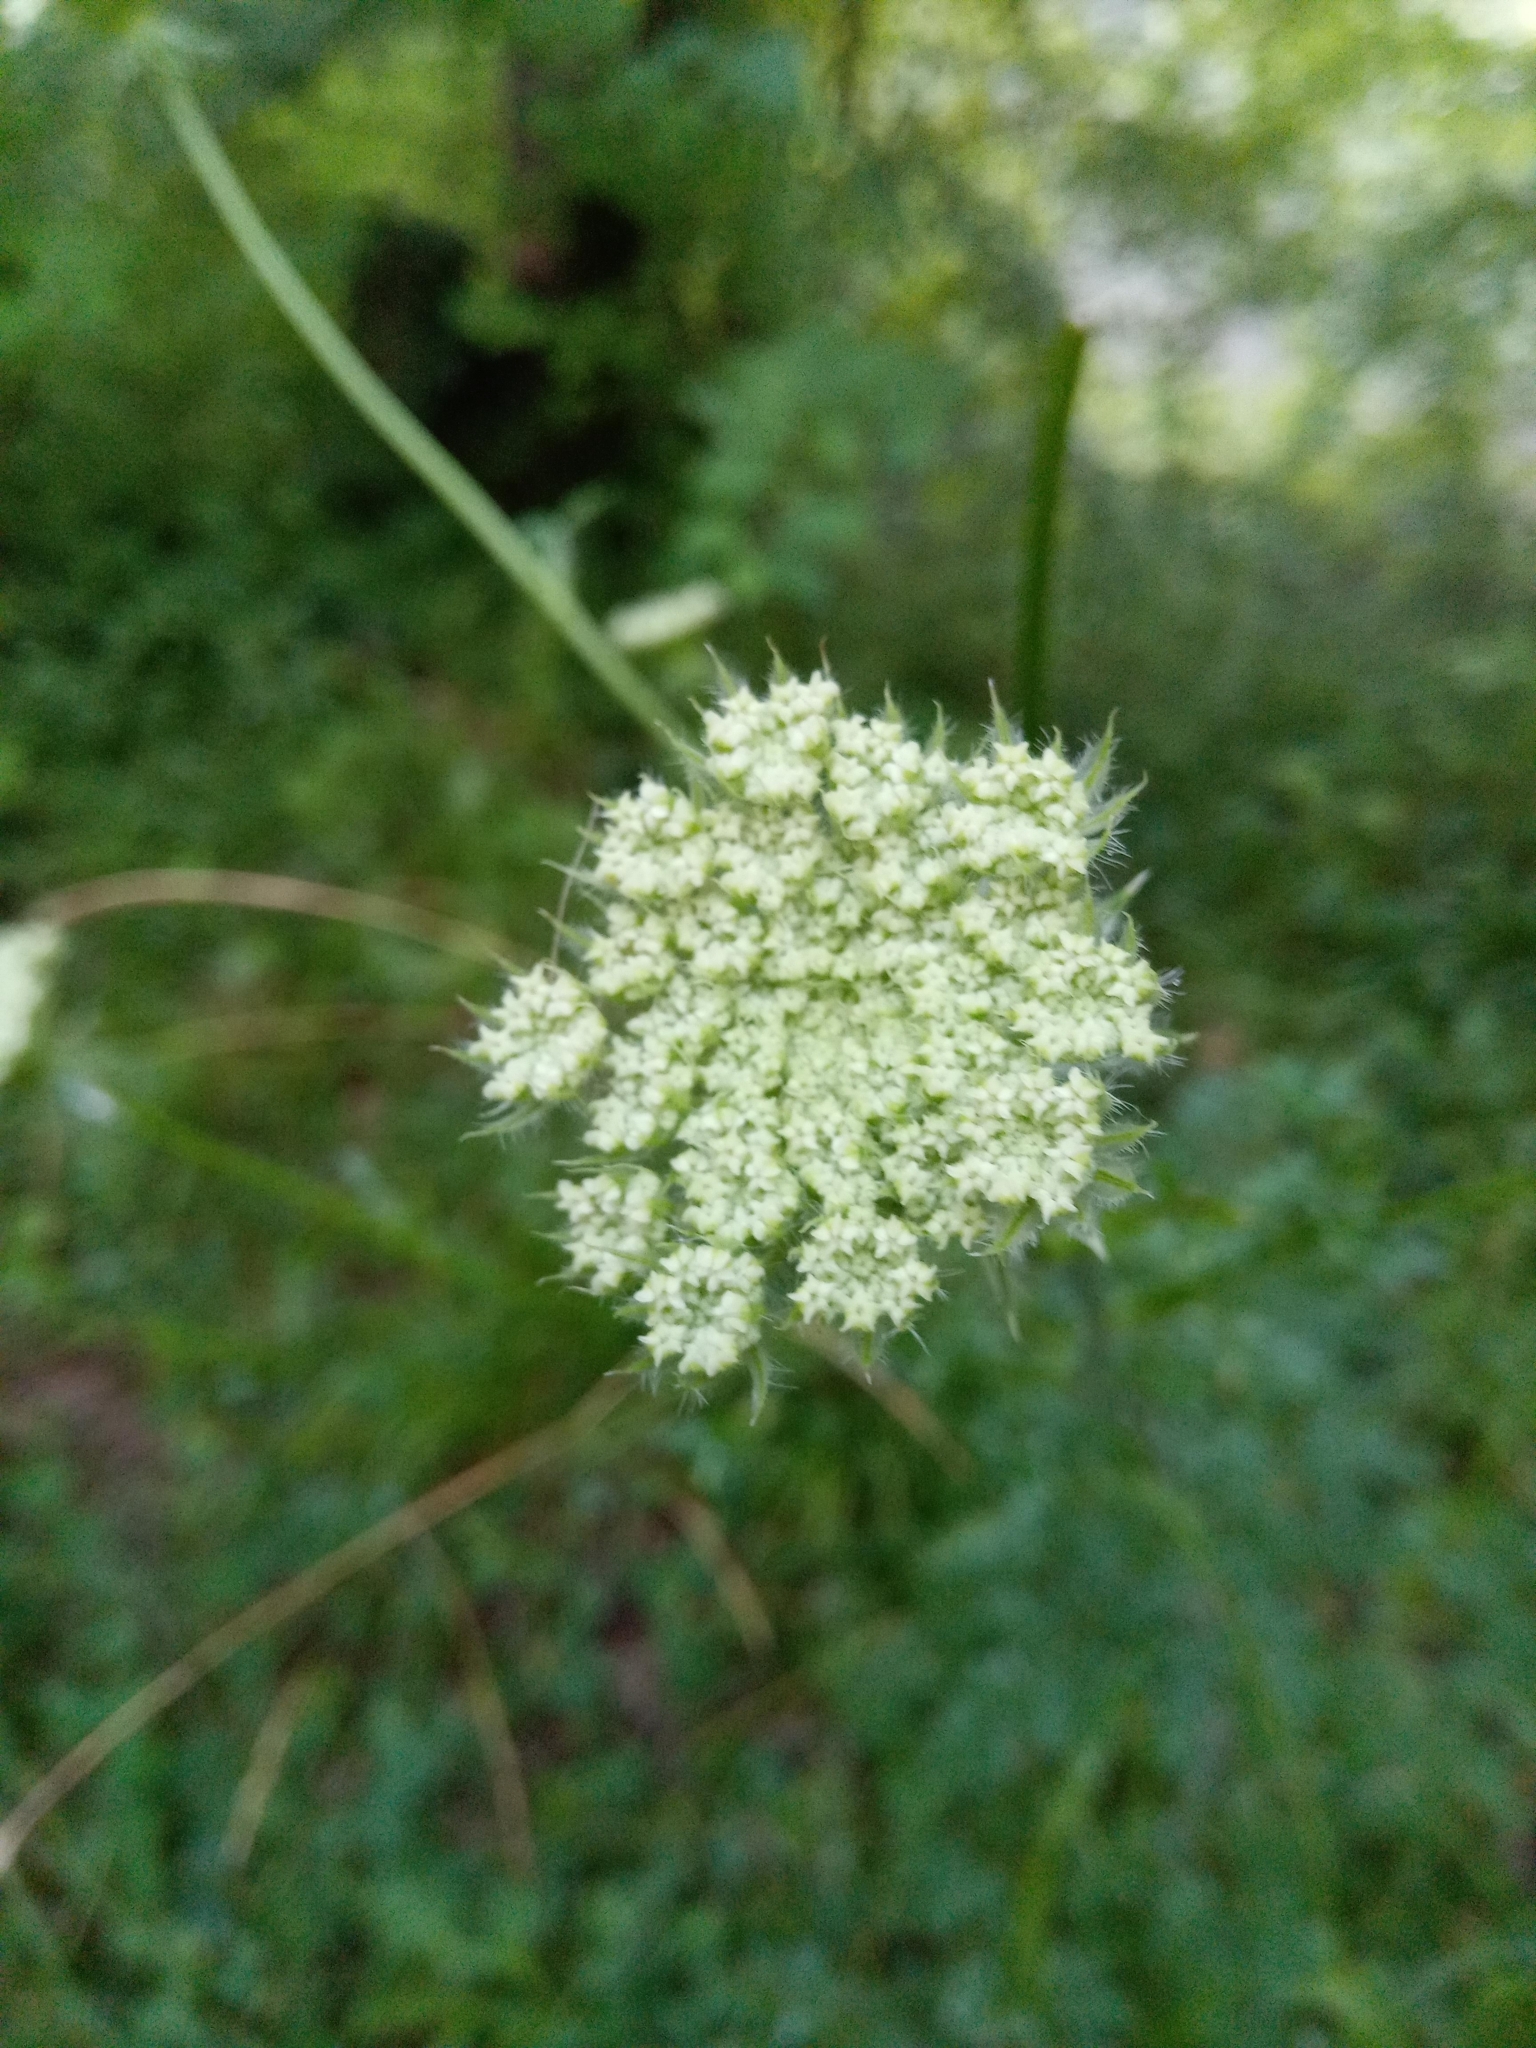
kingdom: Plantae
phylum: Tracheophyta
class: Magnoliopsida
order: Apiales
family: Apiaceae
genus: Silphiodaucus
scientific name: Silphiodaucus hispidus
